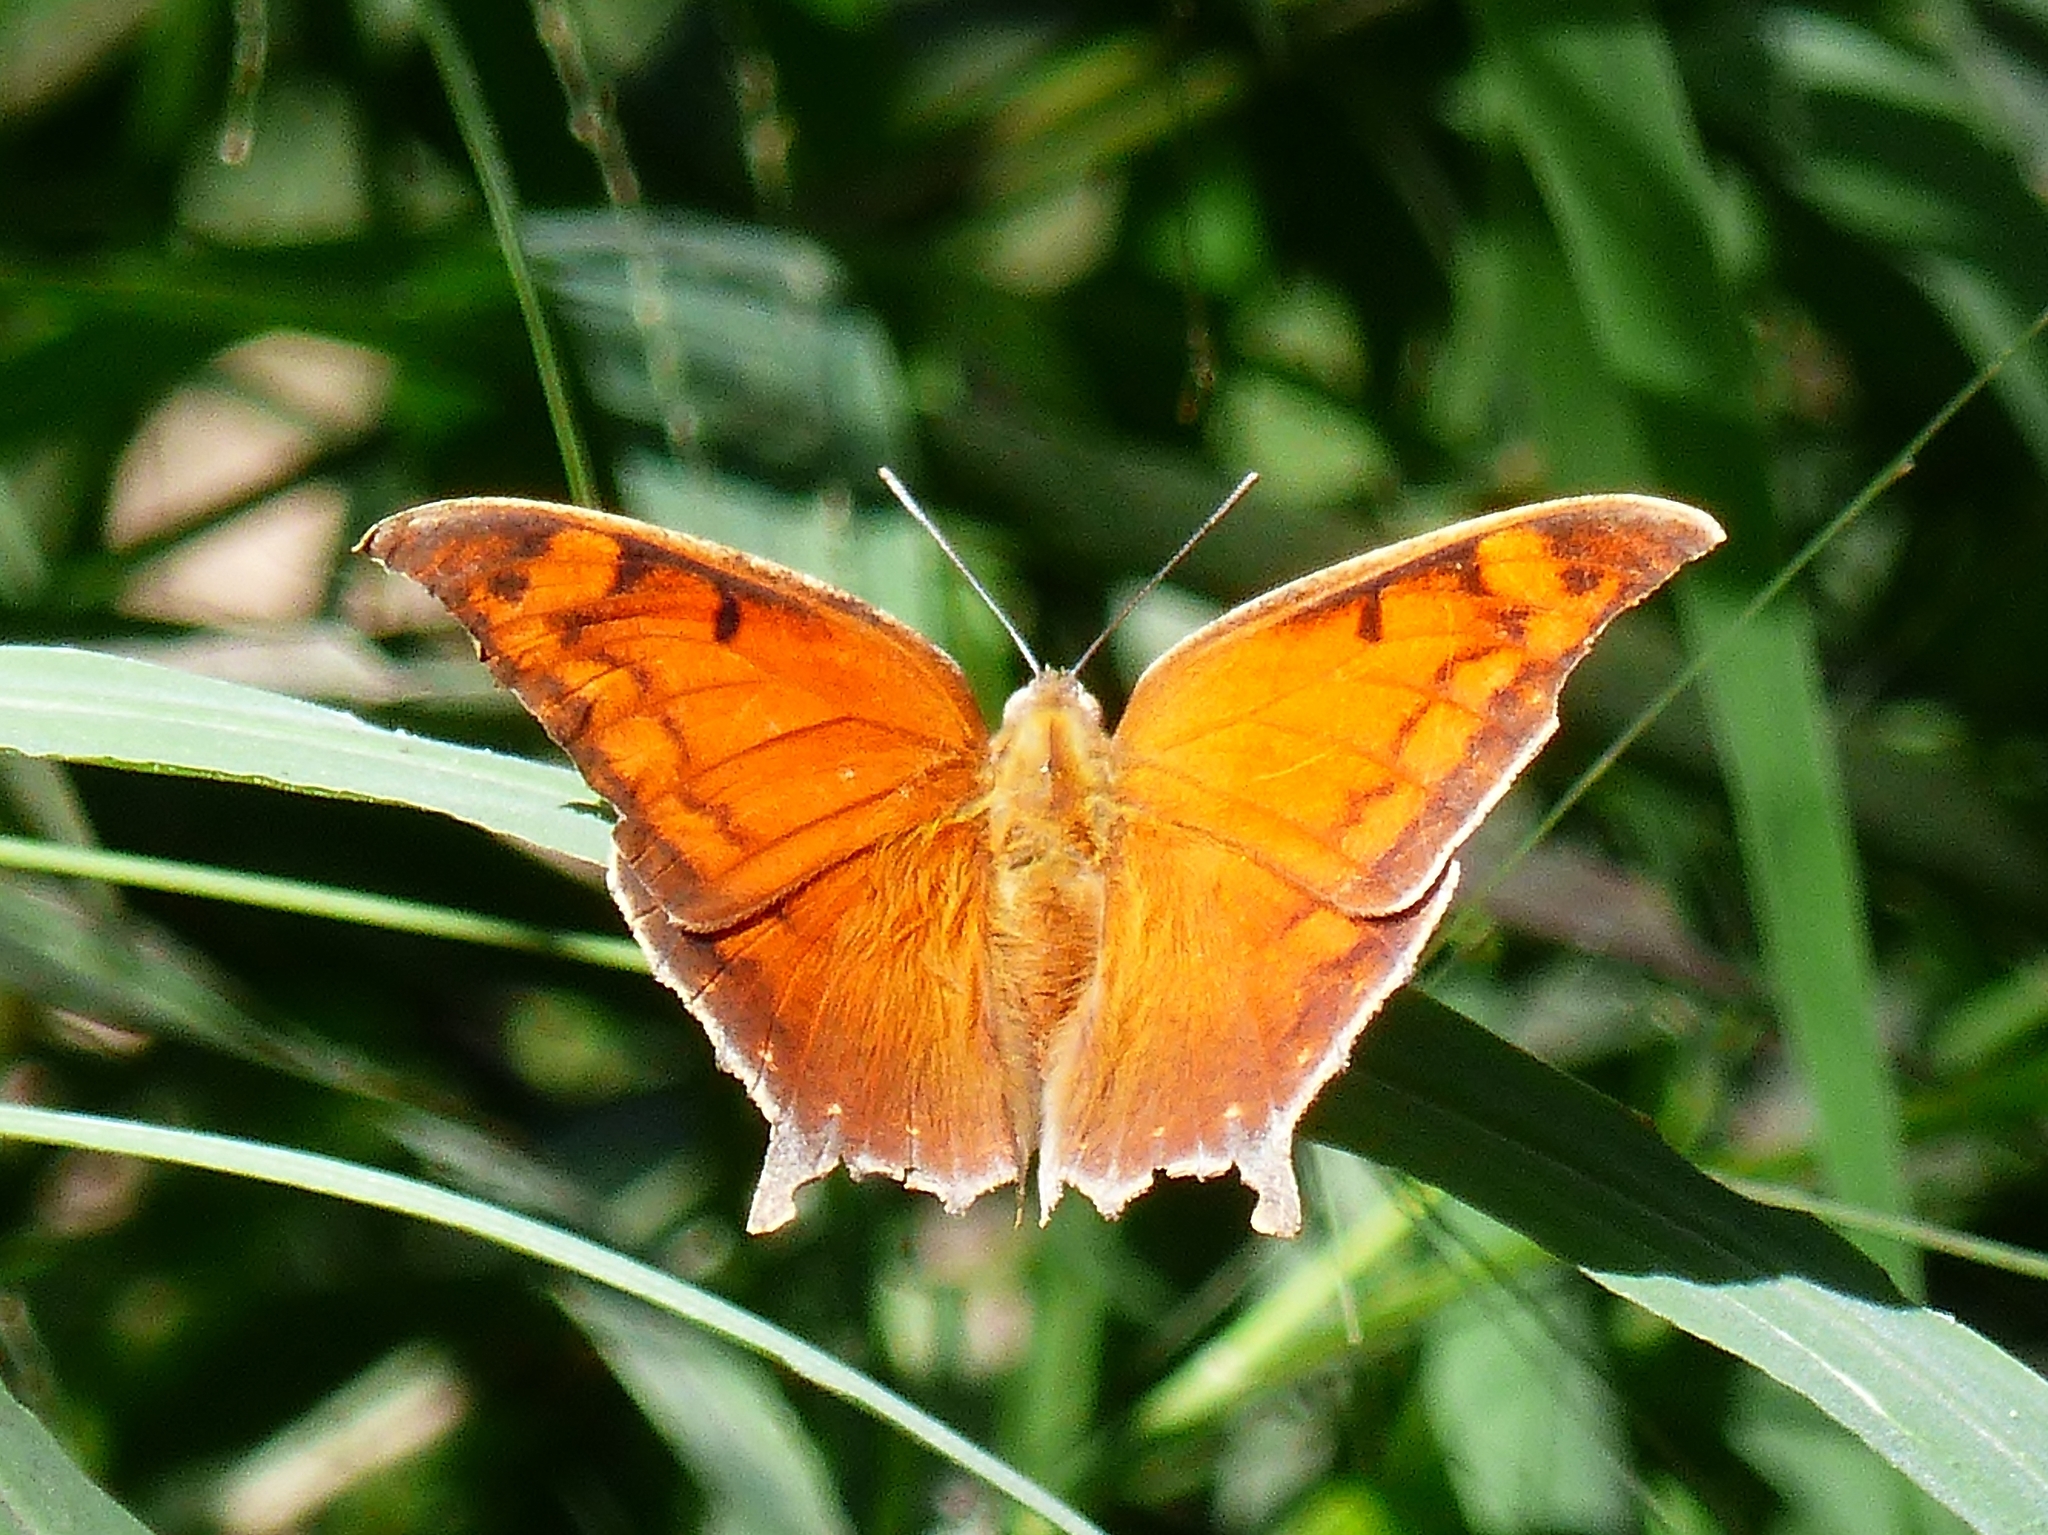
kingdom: Animalia
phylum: Arthropoda
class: Insecta
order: Lepidoptera
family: Nymphalidae
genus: Anaea
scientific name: Anaea aidea
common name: Tropical leafwing
